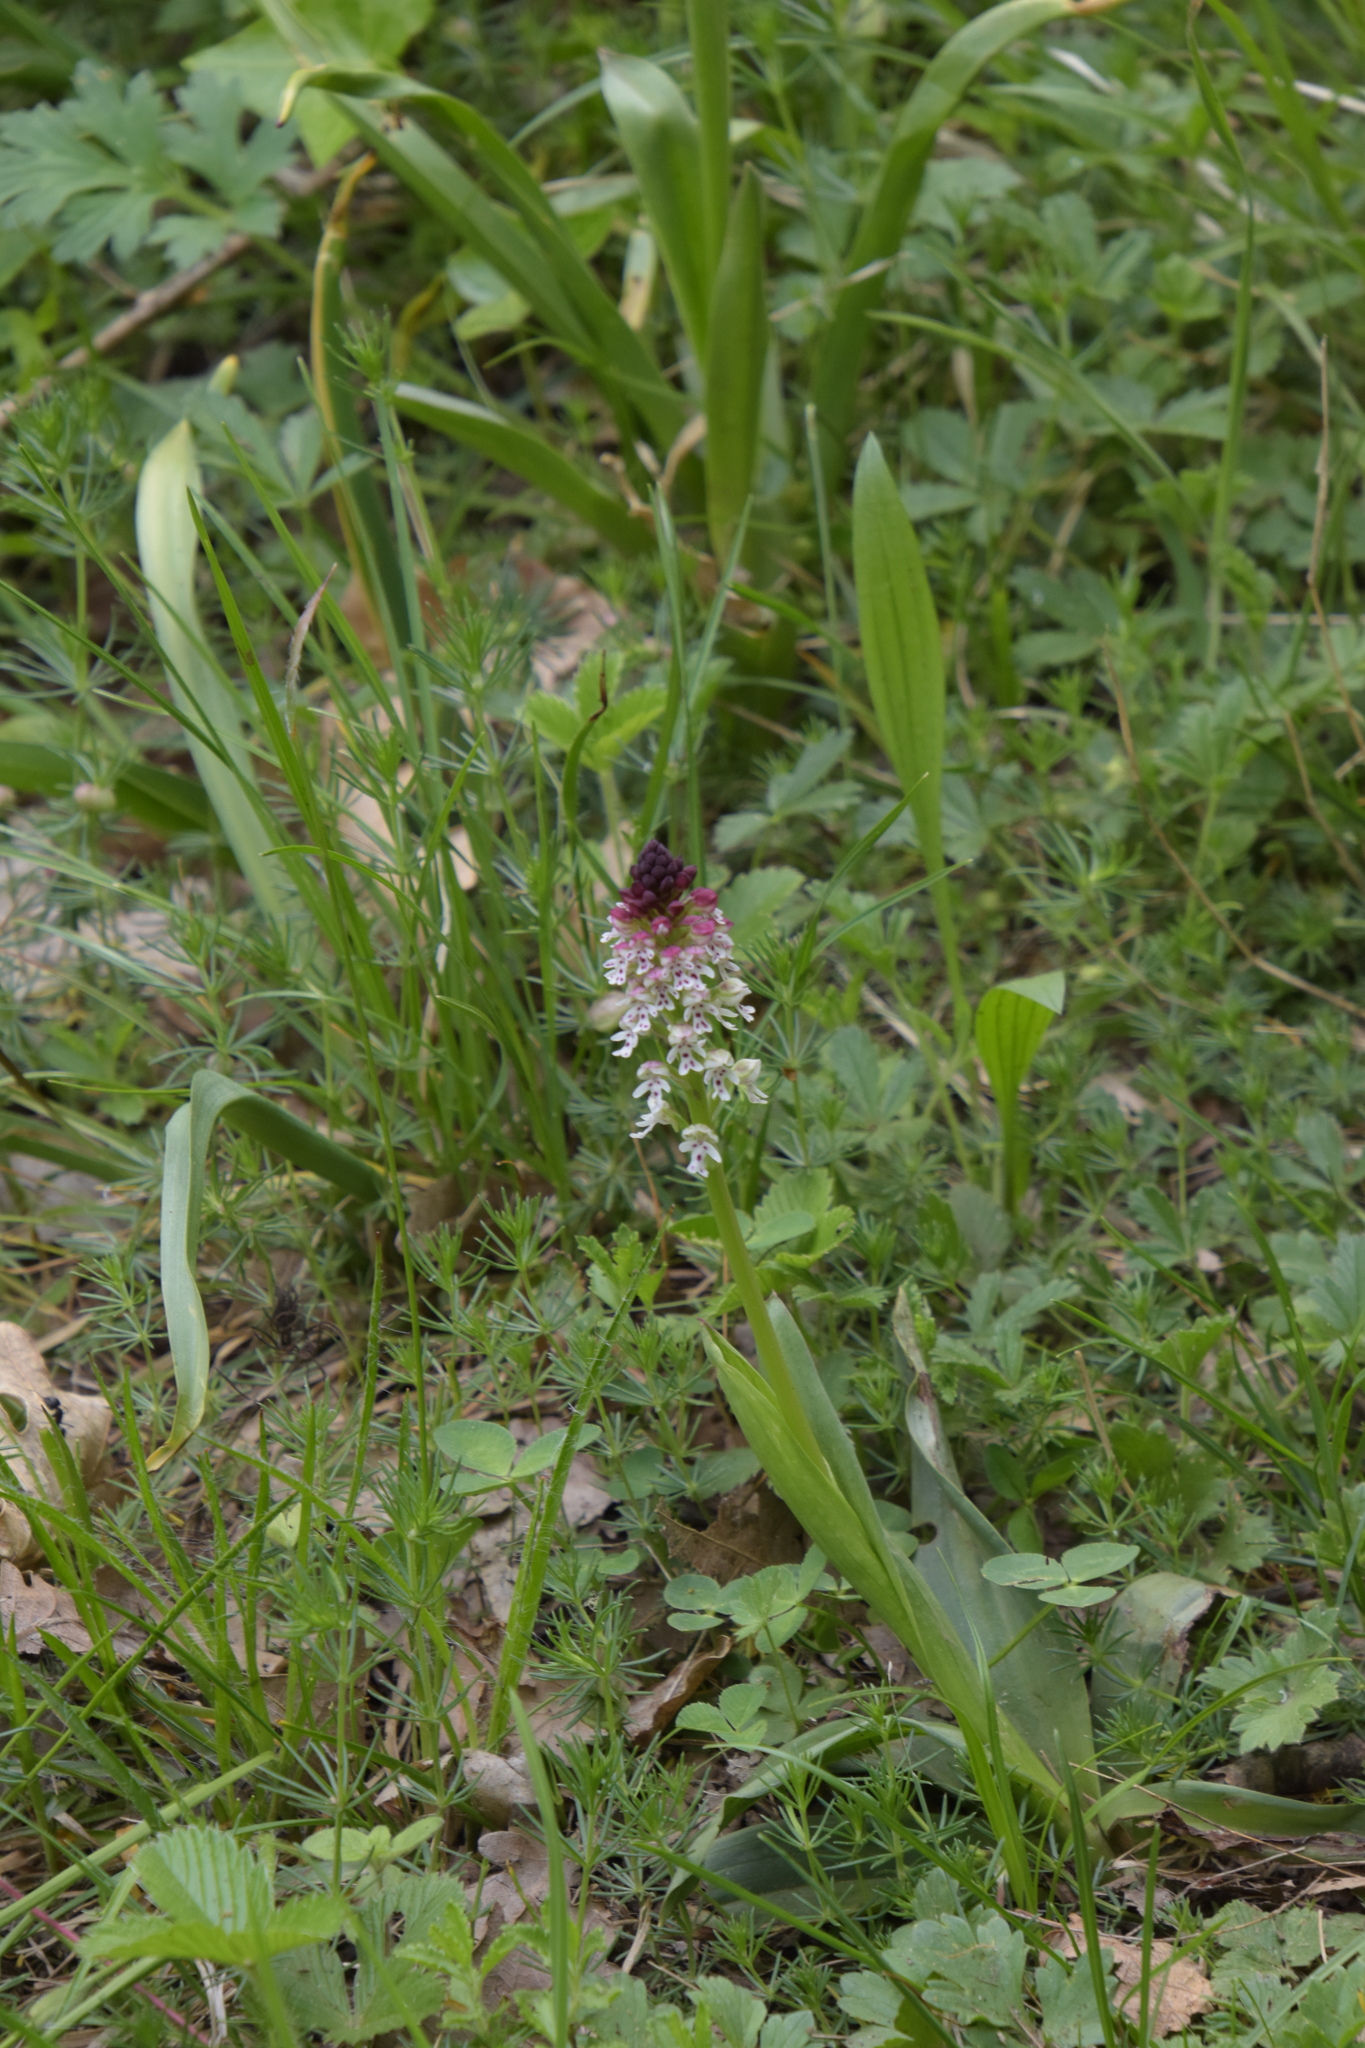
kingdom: Plantae
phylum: Tracheophyta
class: Liliopsida
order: Asparagales
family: Orchidaceae
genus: Neotinea
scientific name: Neotinea ustulata
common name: Burnt orchid
